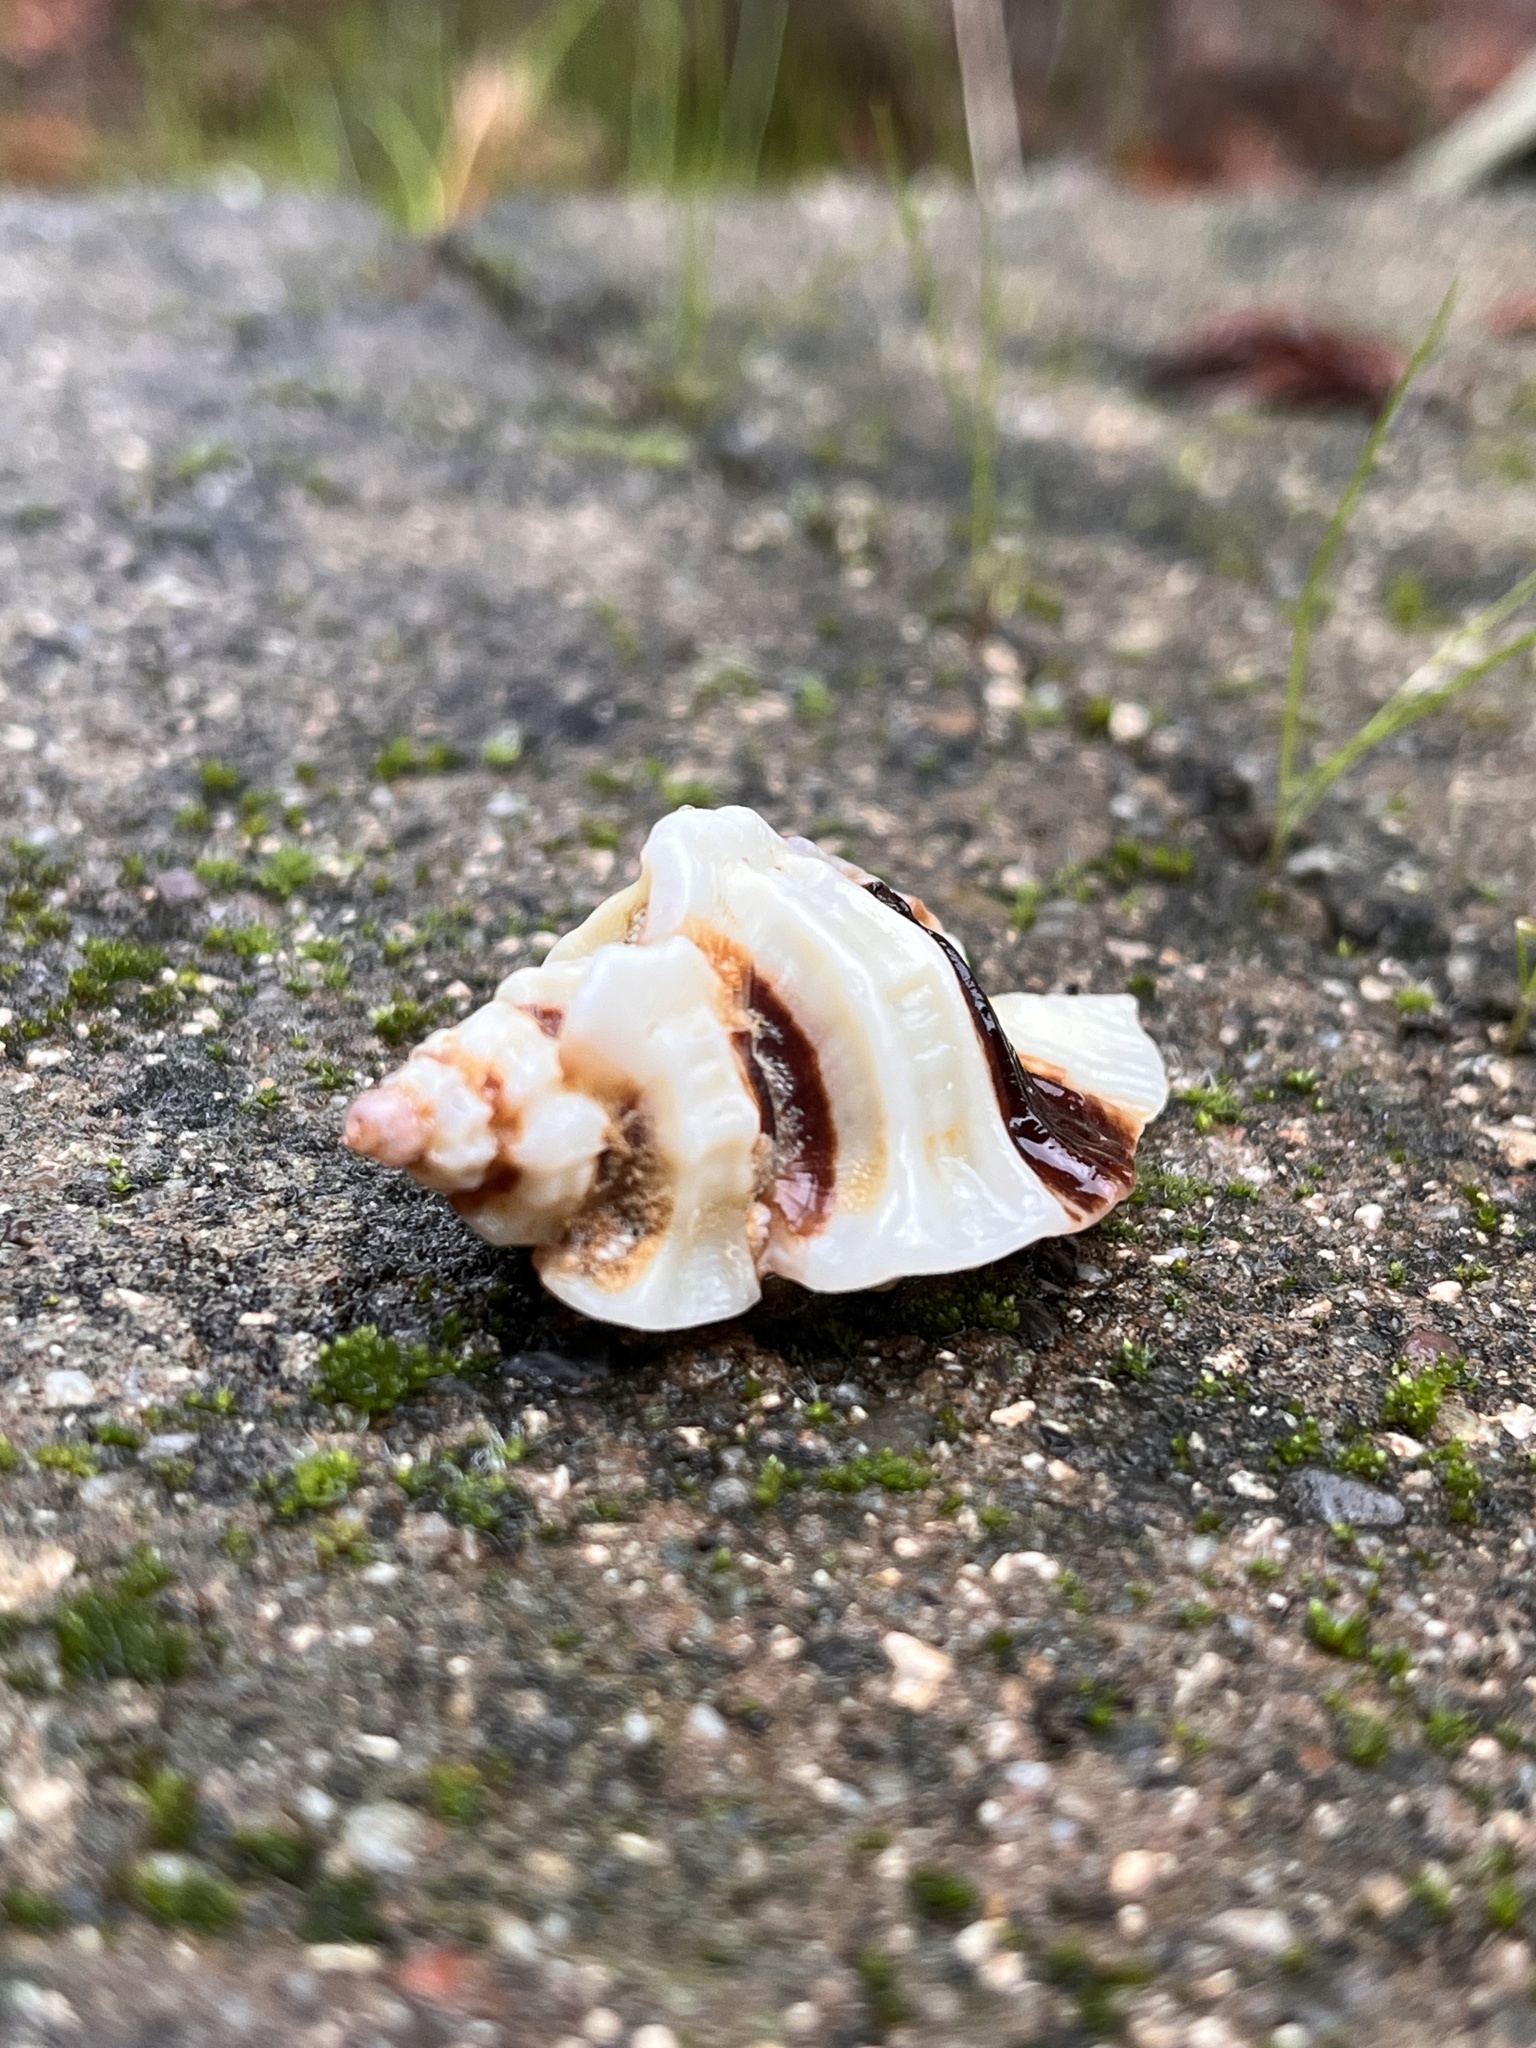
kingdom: Animalia
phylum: Mollusca
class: Gastropoda
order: Neogastropoda
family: Muricidae
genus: Ceratostoma
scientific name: Ceratostoma foliatum
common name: Foliate thorn purpura
